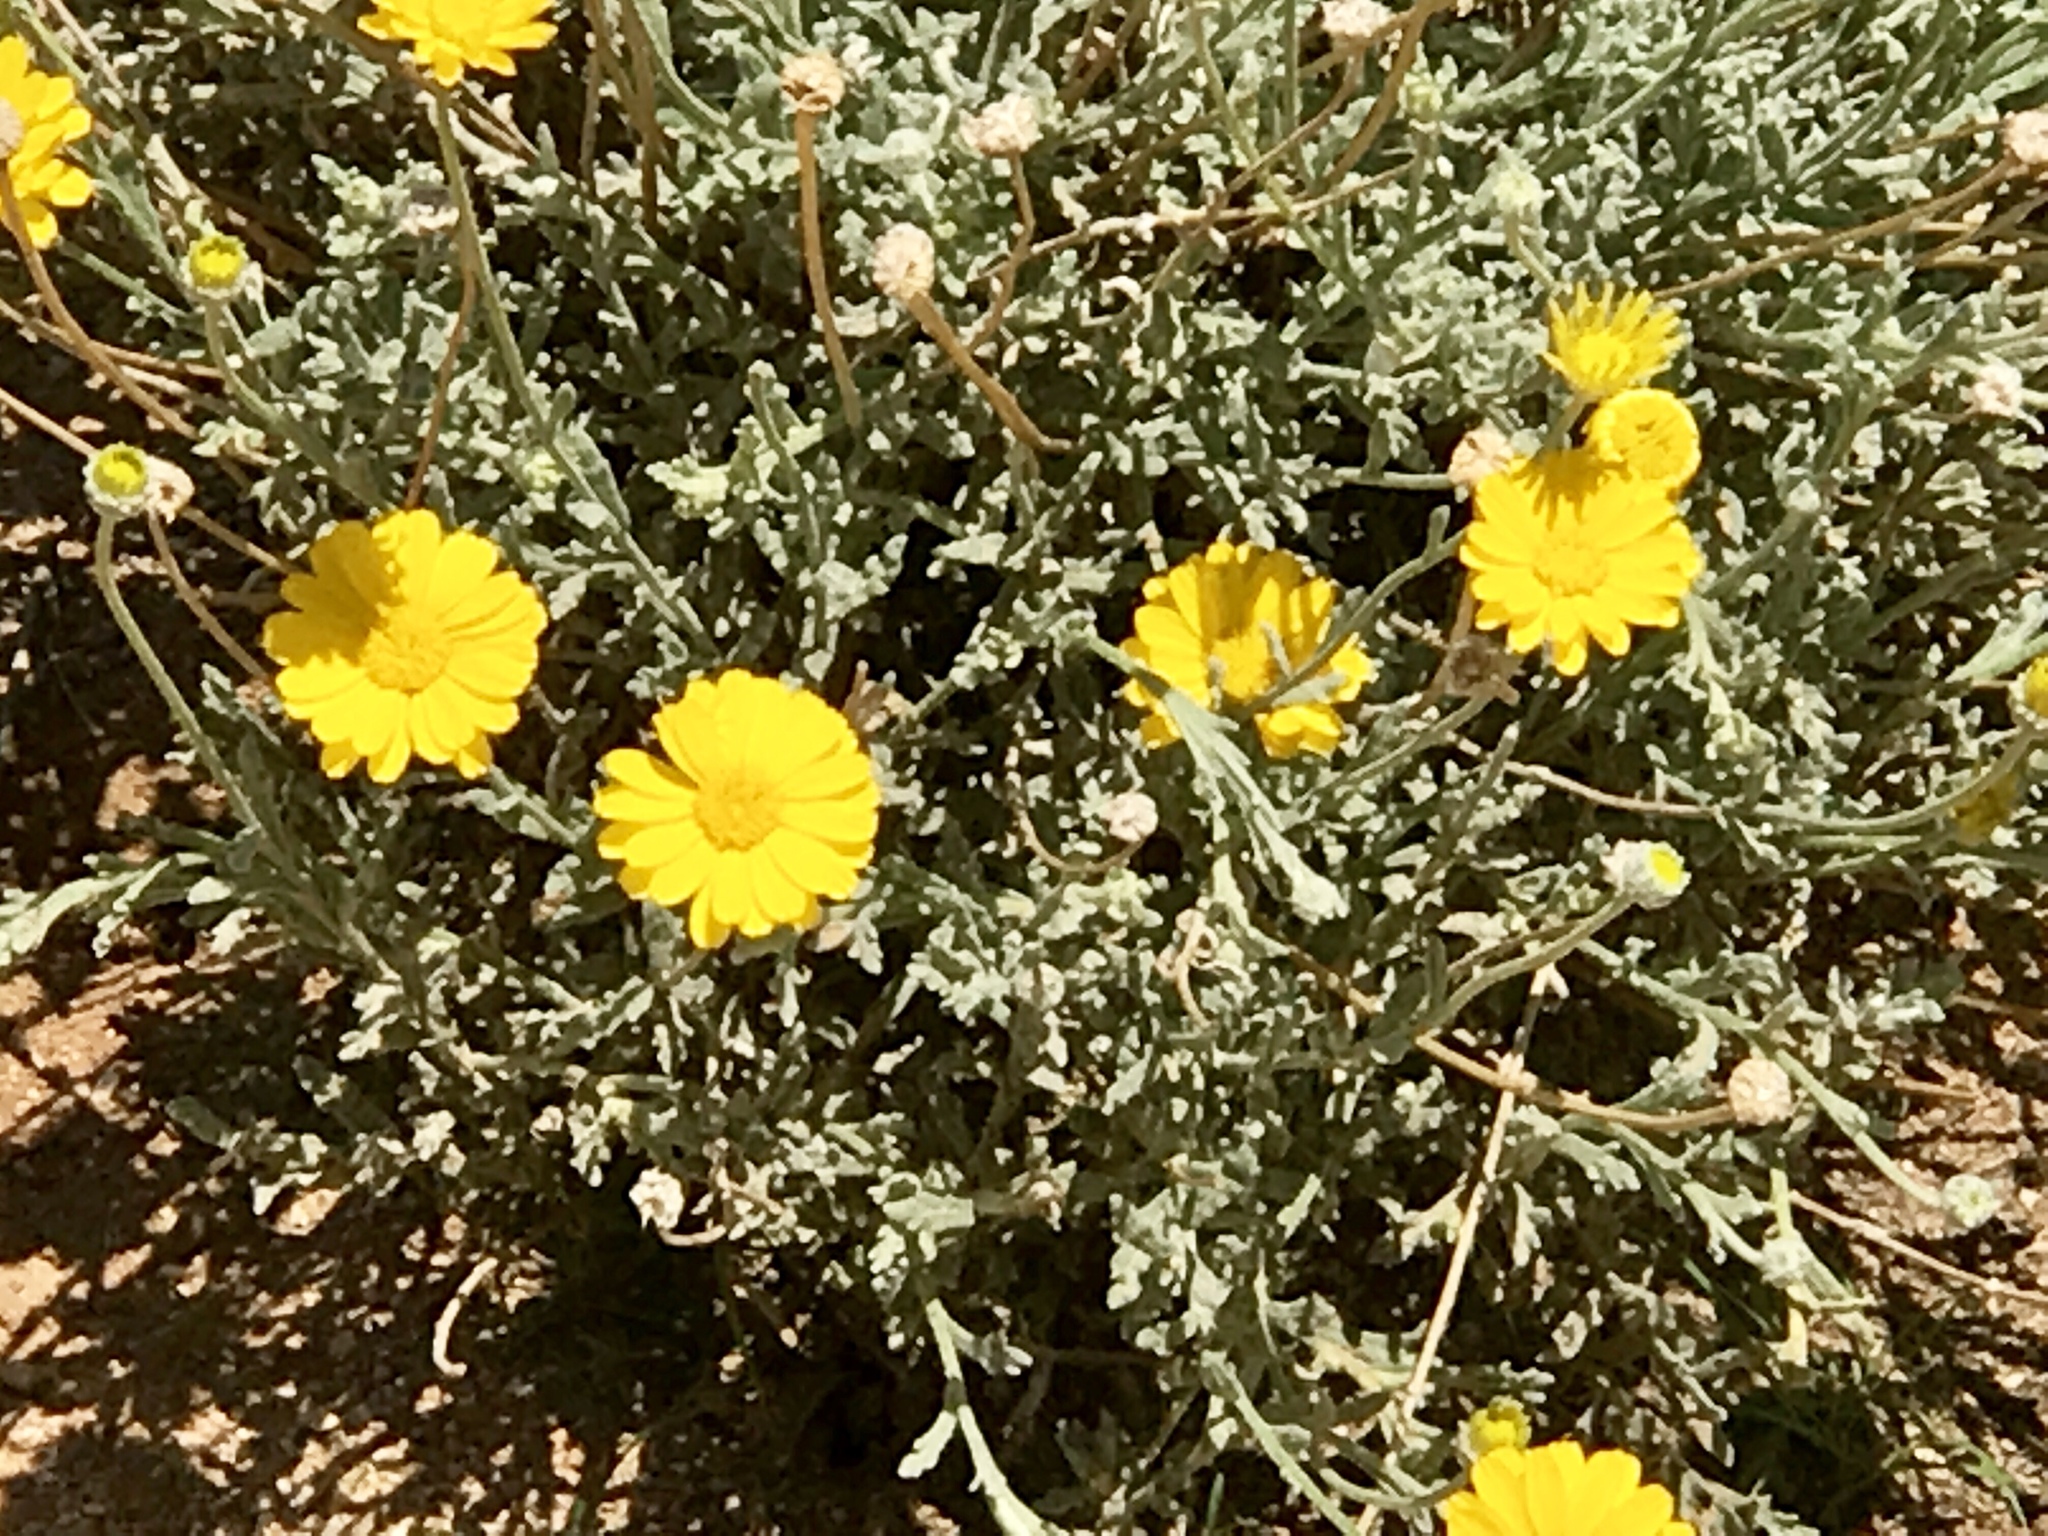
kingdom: Plantae
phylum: Tracheophyta
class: Magnoliopsida
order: Asterales
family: Asteraceae
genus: Baileya
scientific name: Baileya multiradiata
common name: Desert-marigold
